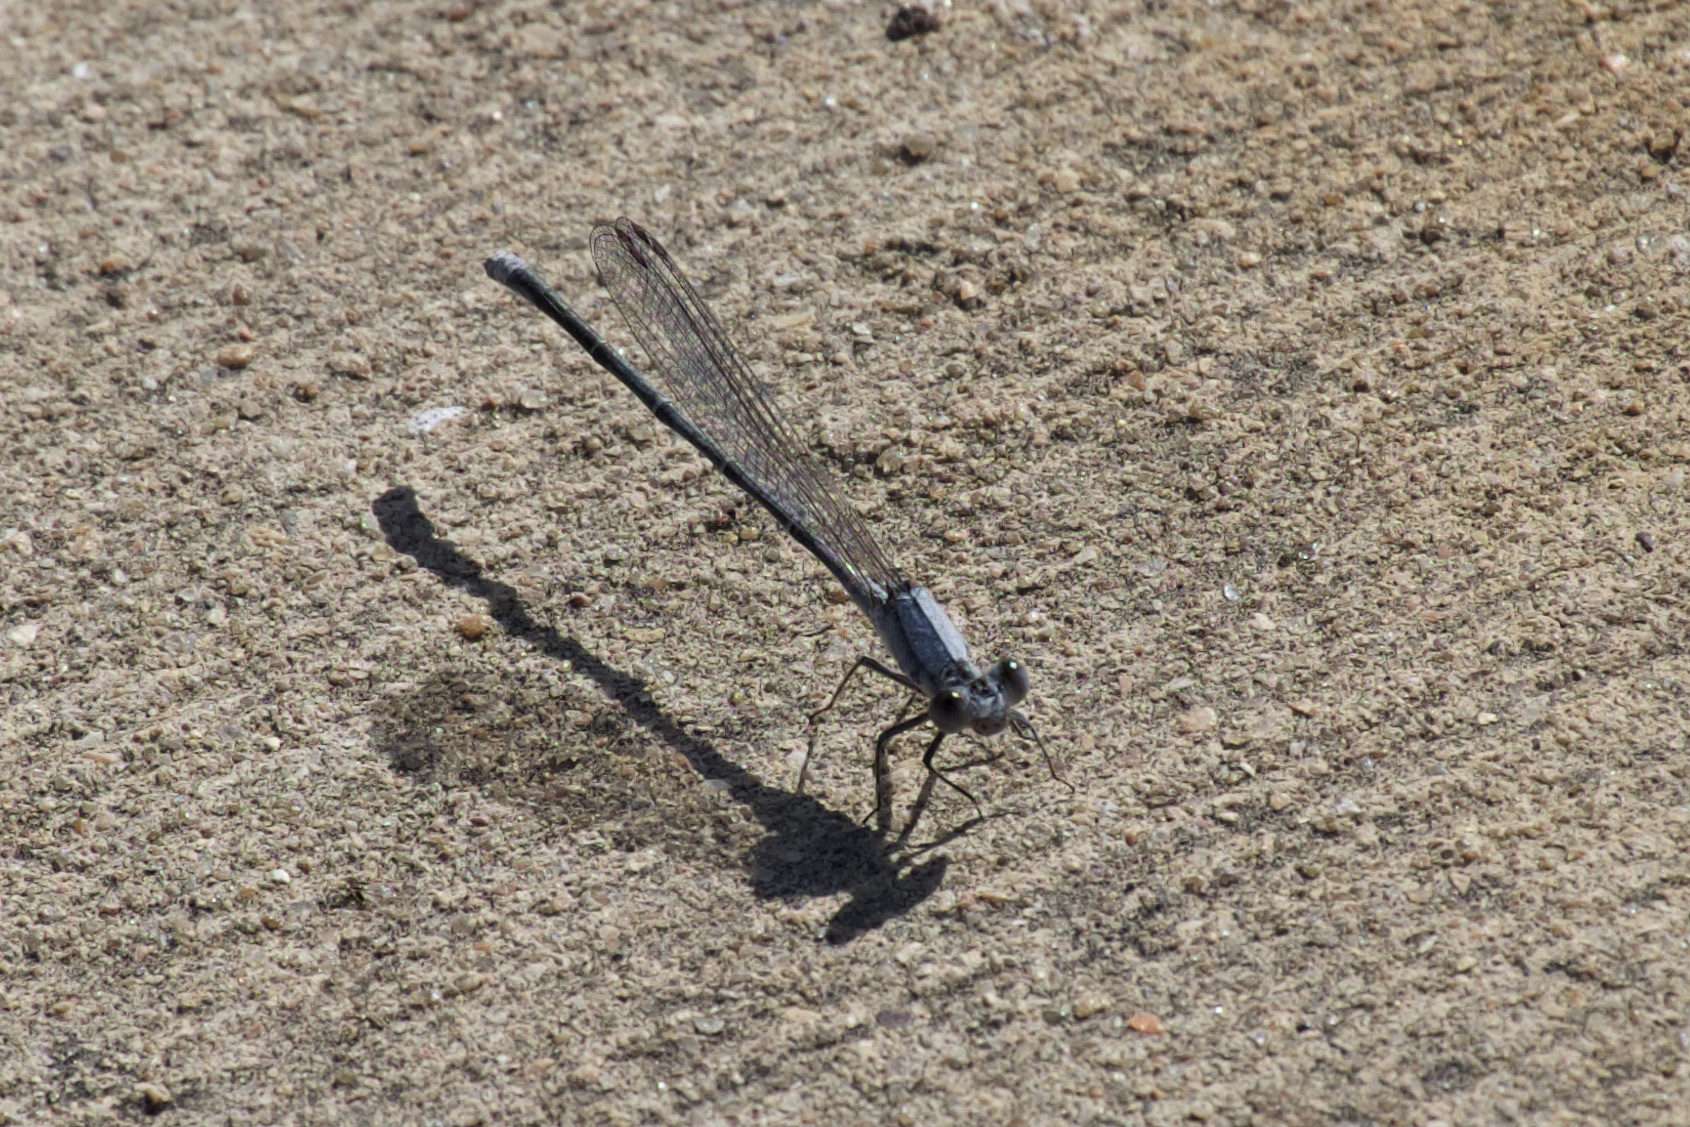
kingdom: Animalia
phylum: Arthropoda
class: Insecta
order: Odonata
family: Coenagrionidae
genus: Argia
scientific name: Argia moesta
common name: Powdered dancer
